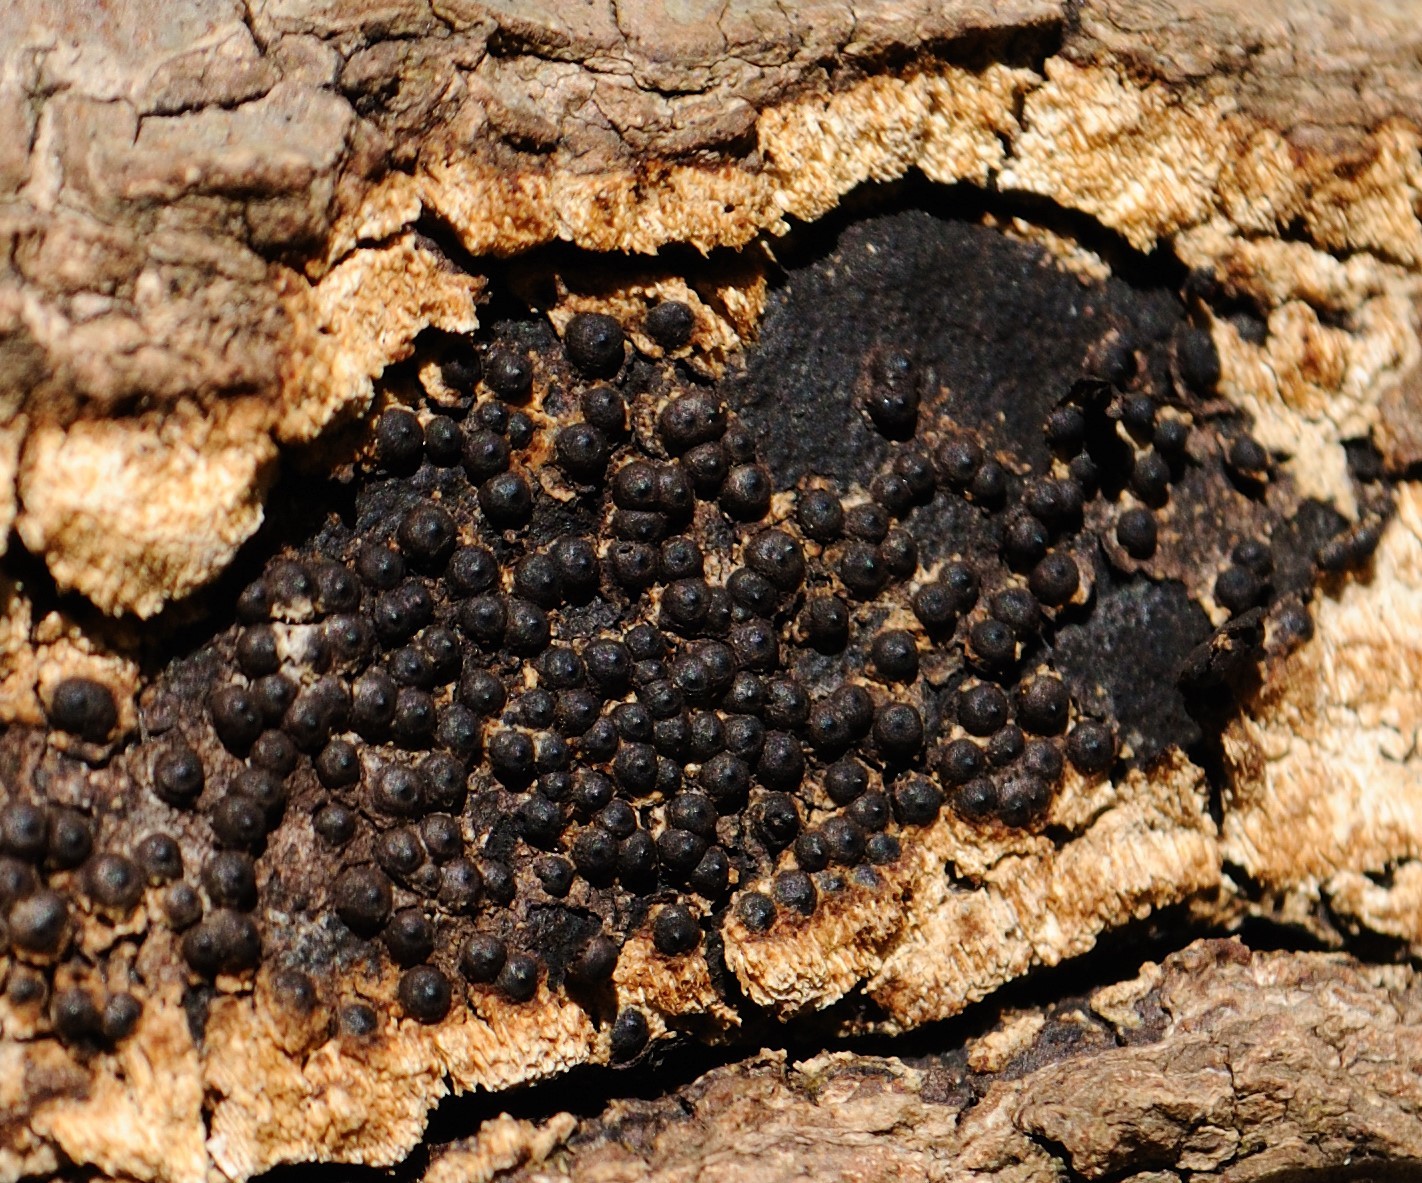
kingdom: Fungi
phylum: Ascomycota
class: Sordariomycetes
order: Xylariales
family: Xylariaceae
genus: Rosellinia
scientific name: Rosellinia corticium
